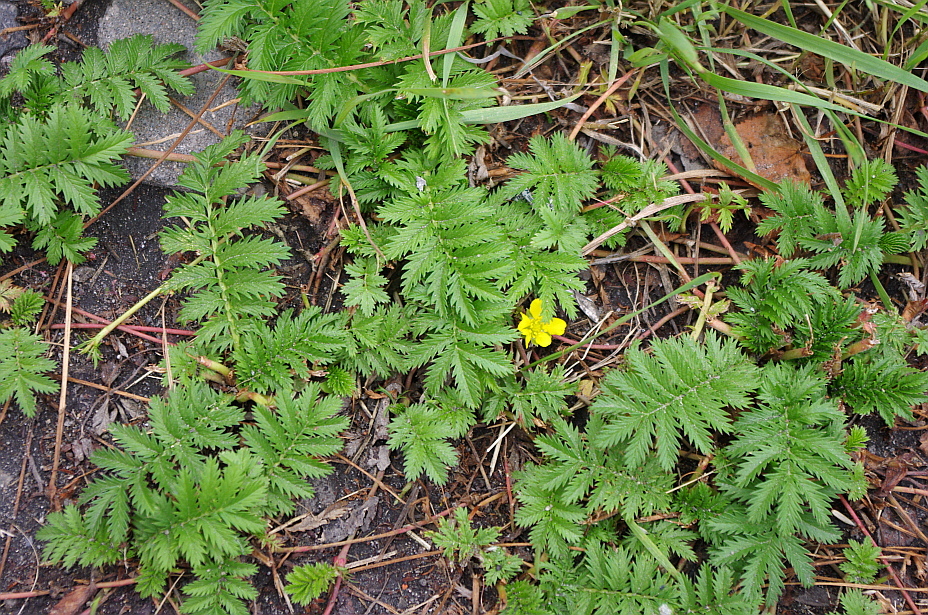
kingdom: Plantae
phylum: Tracheophyta
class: Magnoliopsida
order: Rosales
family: Rosaceae
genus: Argentina
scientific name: Argentina anserina
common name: Common silverweed
